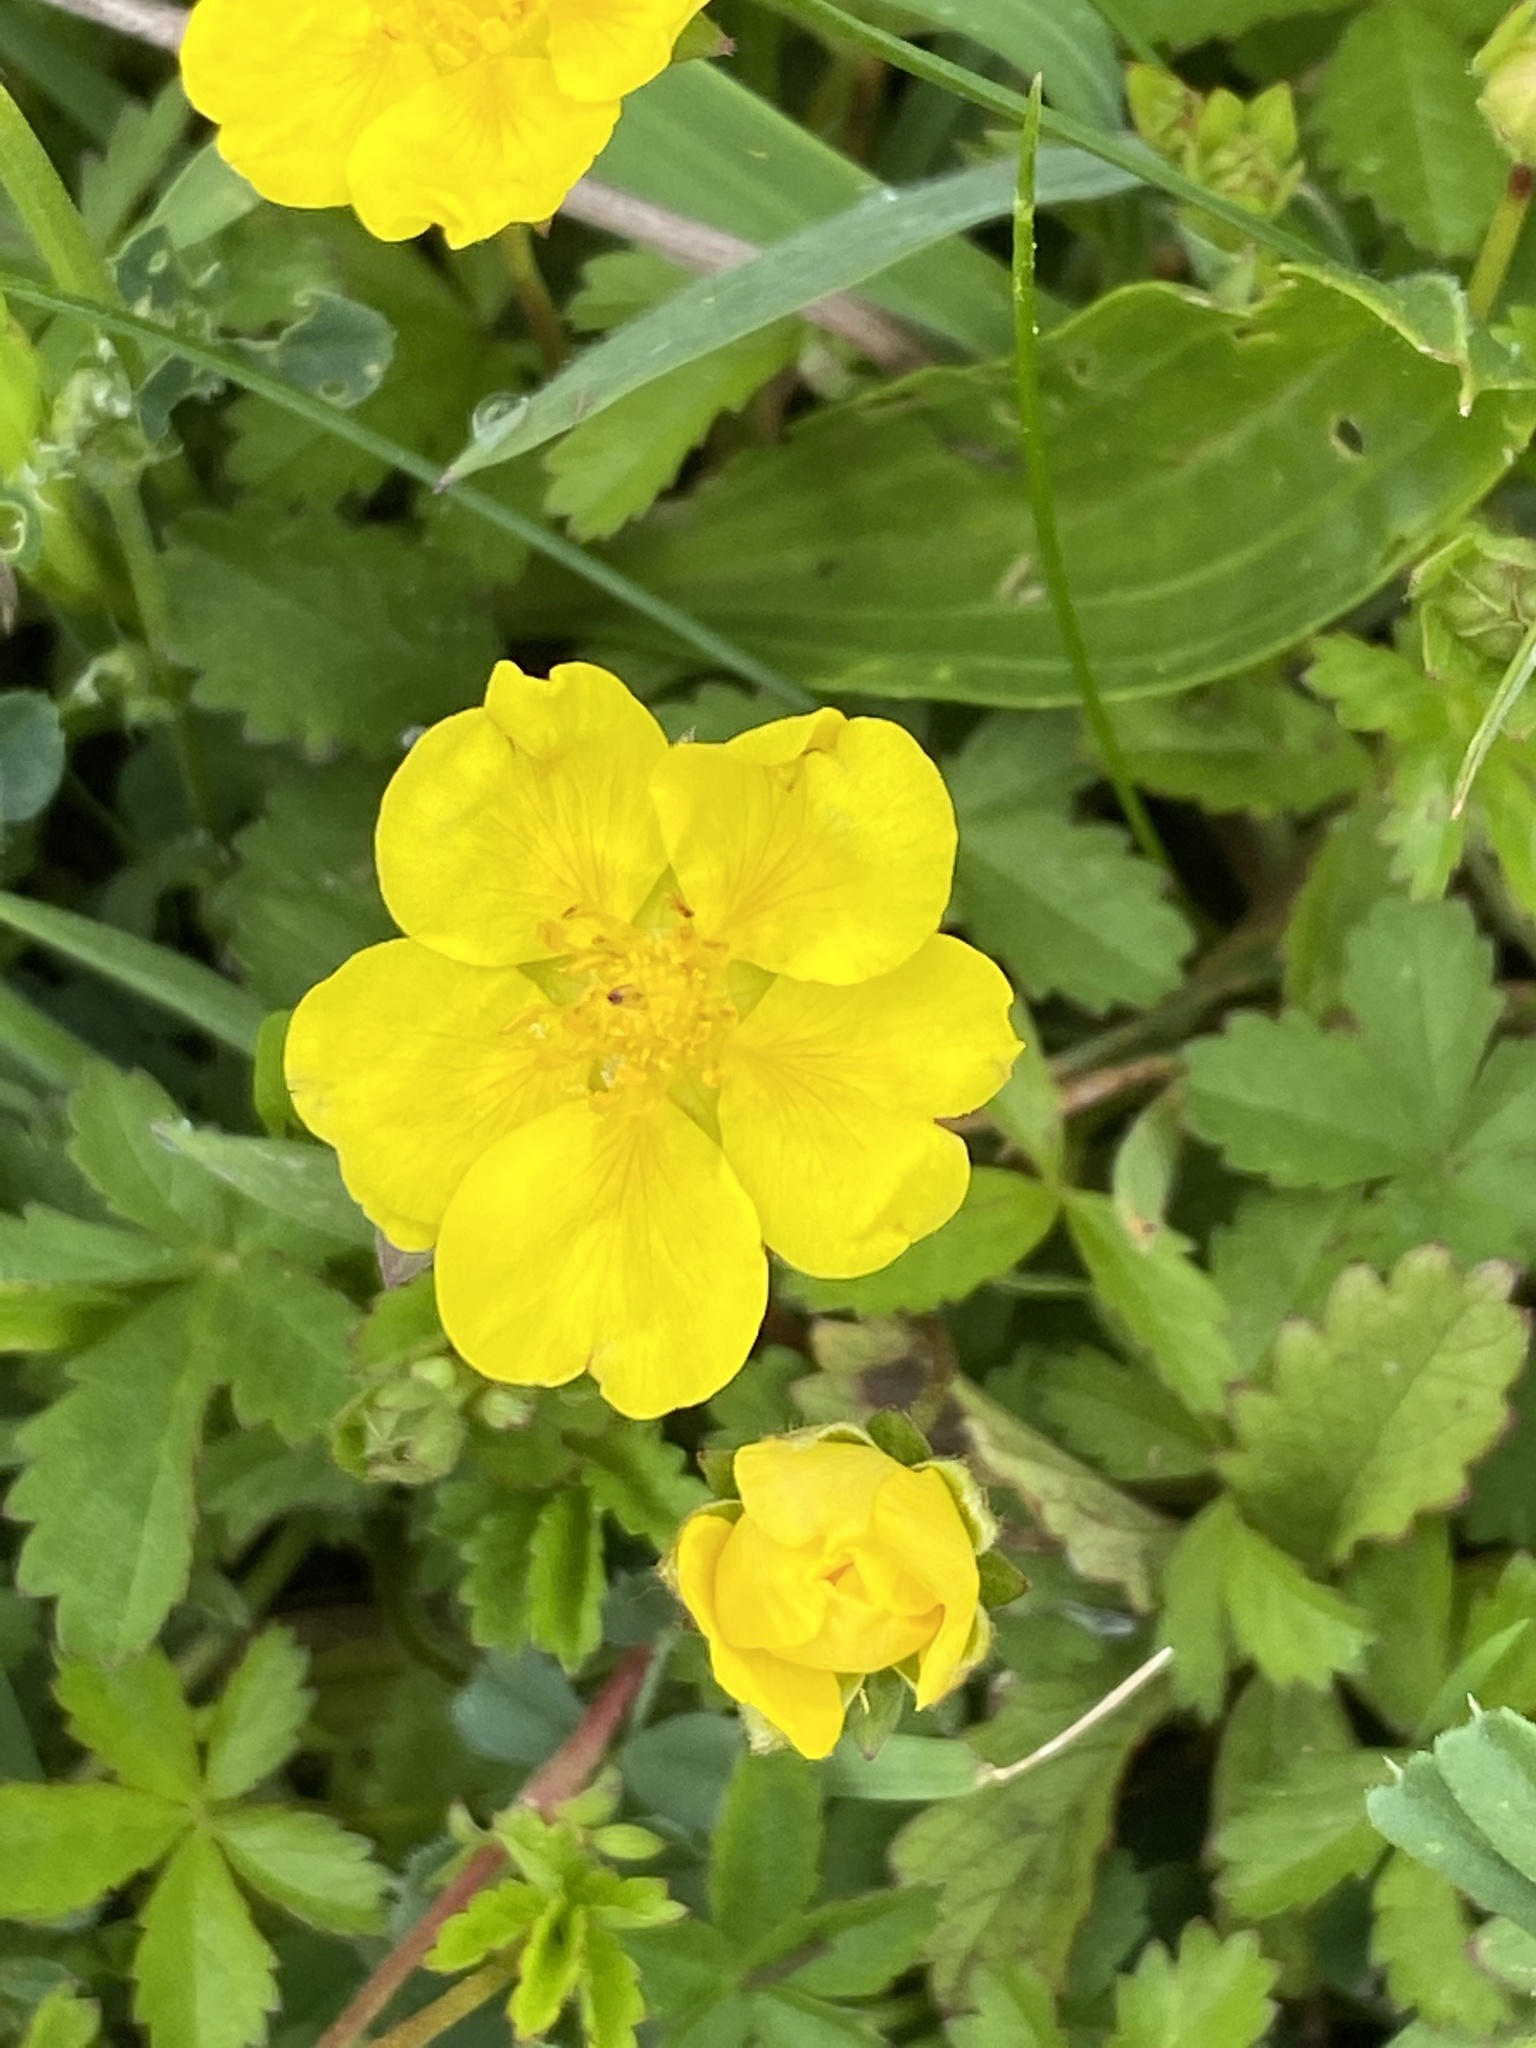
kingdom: Plantae
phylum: Tracheophyta
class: Magnoliopsida
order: Rosales
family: Rosaceae
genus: Potentilla
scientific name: Potentilla reptans
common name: Creeping cinquefoil
